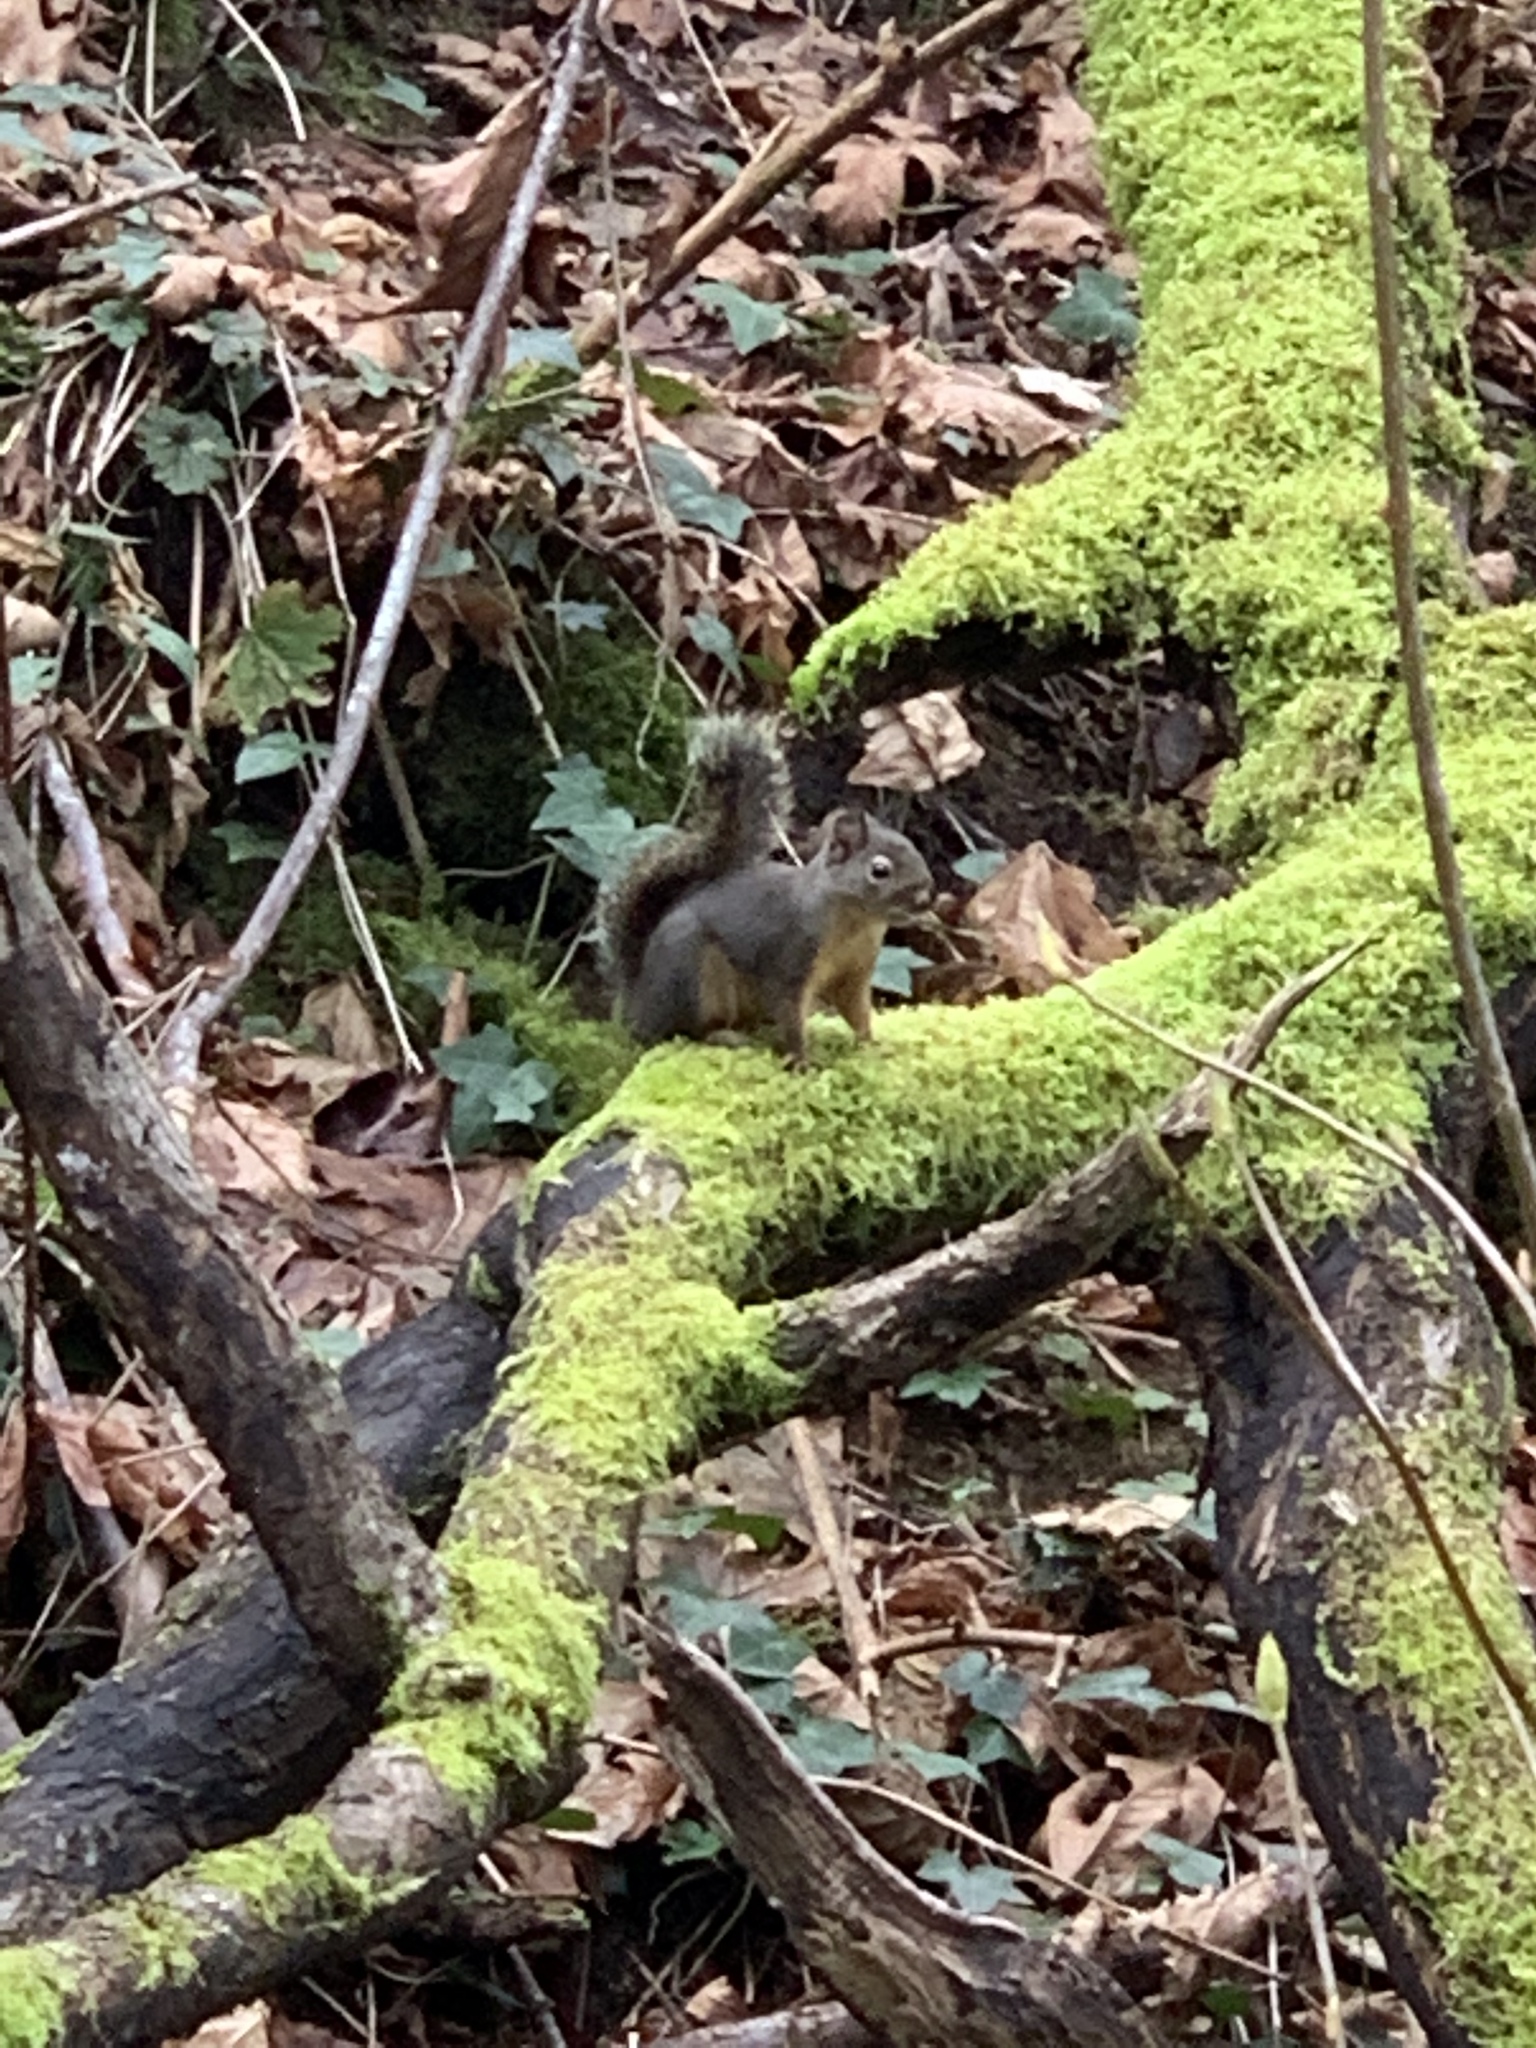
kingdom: Animalia
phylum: Chordata
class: Mammalia
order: Rodentia
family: Sciuridae
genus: Tamiasciurus
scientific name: Tamiasciurus douglasii
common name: Douglas's squirrel
